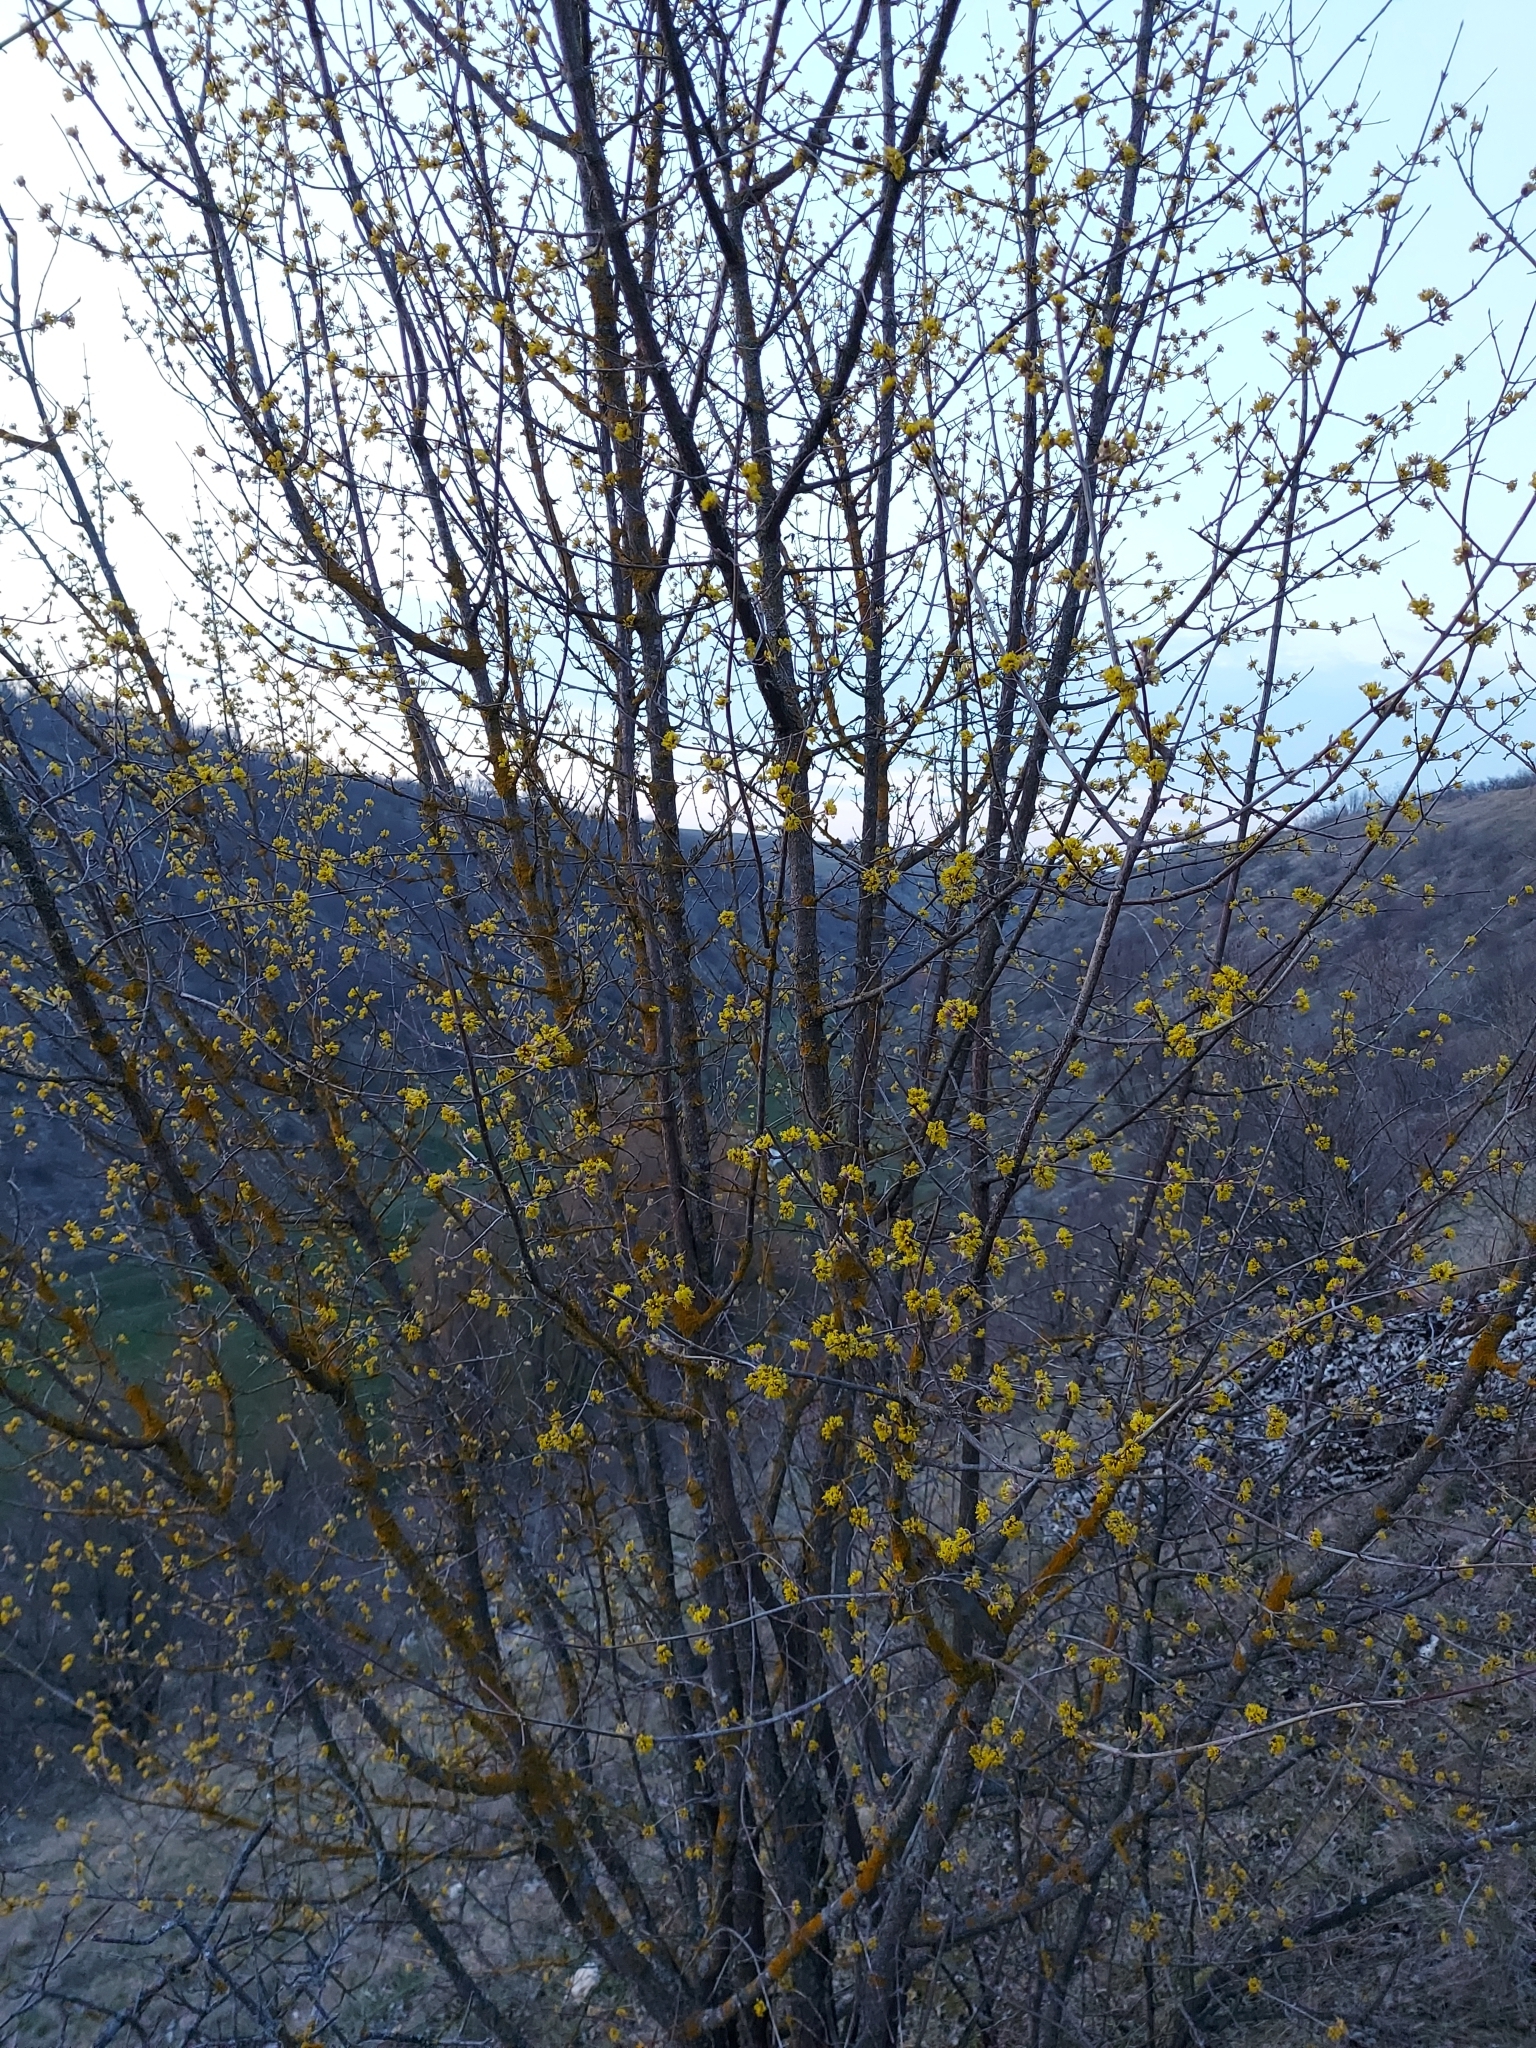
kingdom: Plantae
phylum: Tracheophyta
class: Magnoliopsida
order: Cornales
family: Cornaceae
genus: Cornus
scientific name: Cornus mas
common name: Cornelian-cherry
